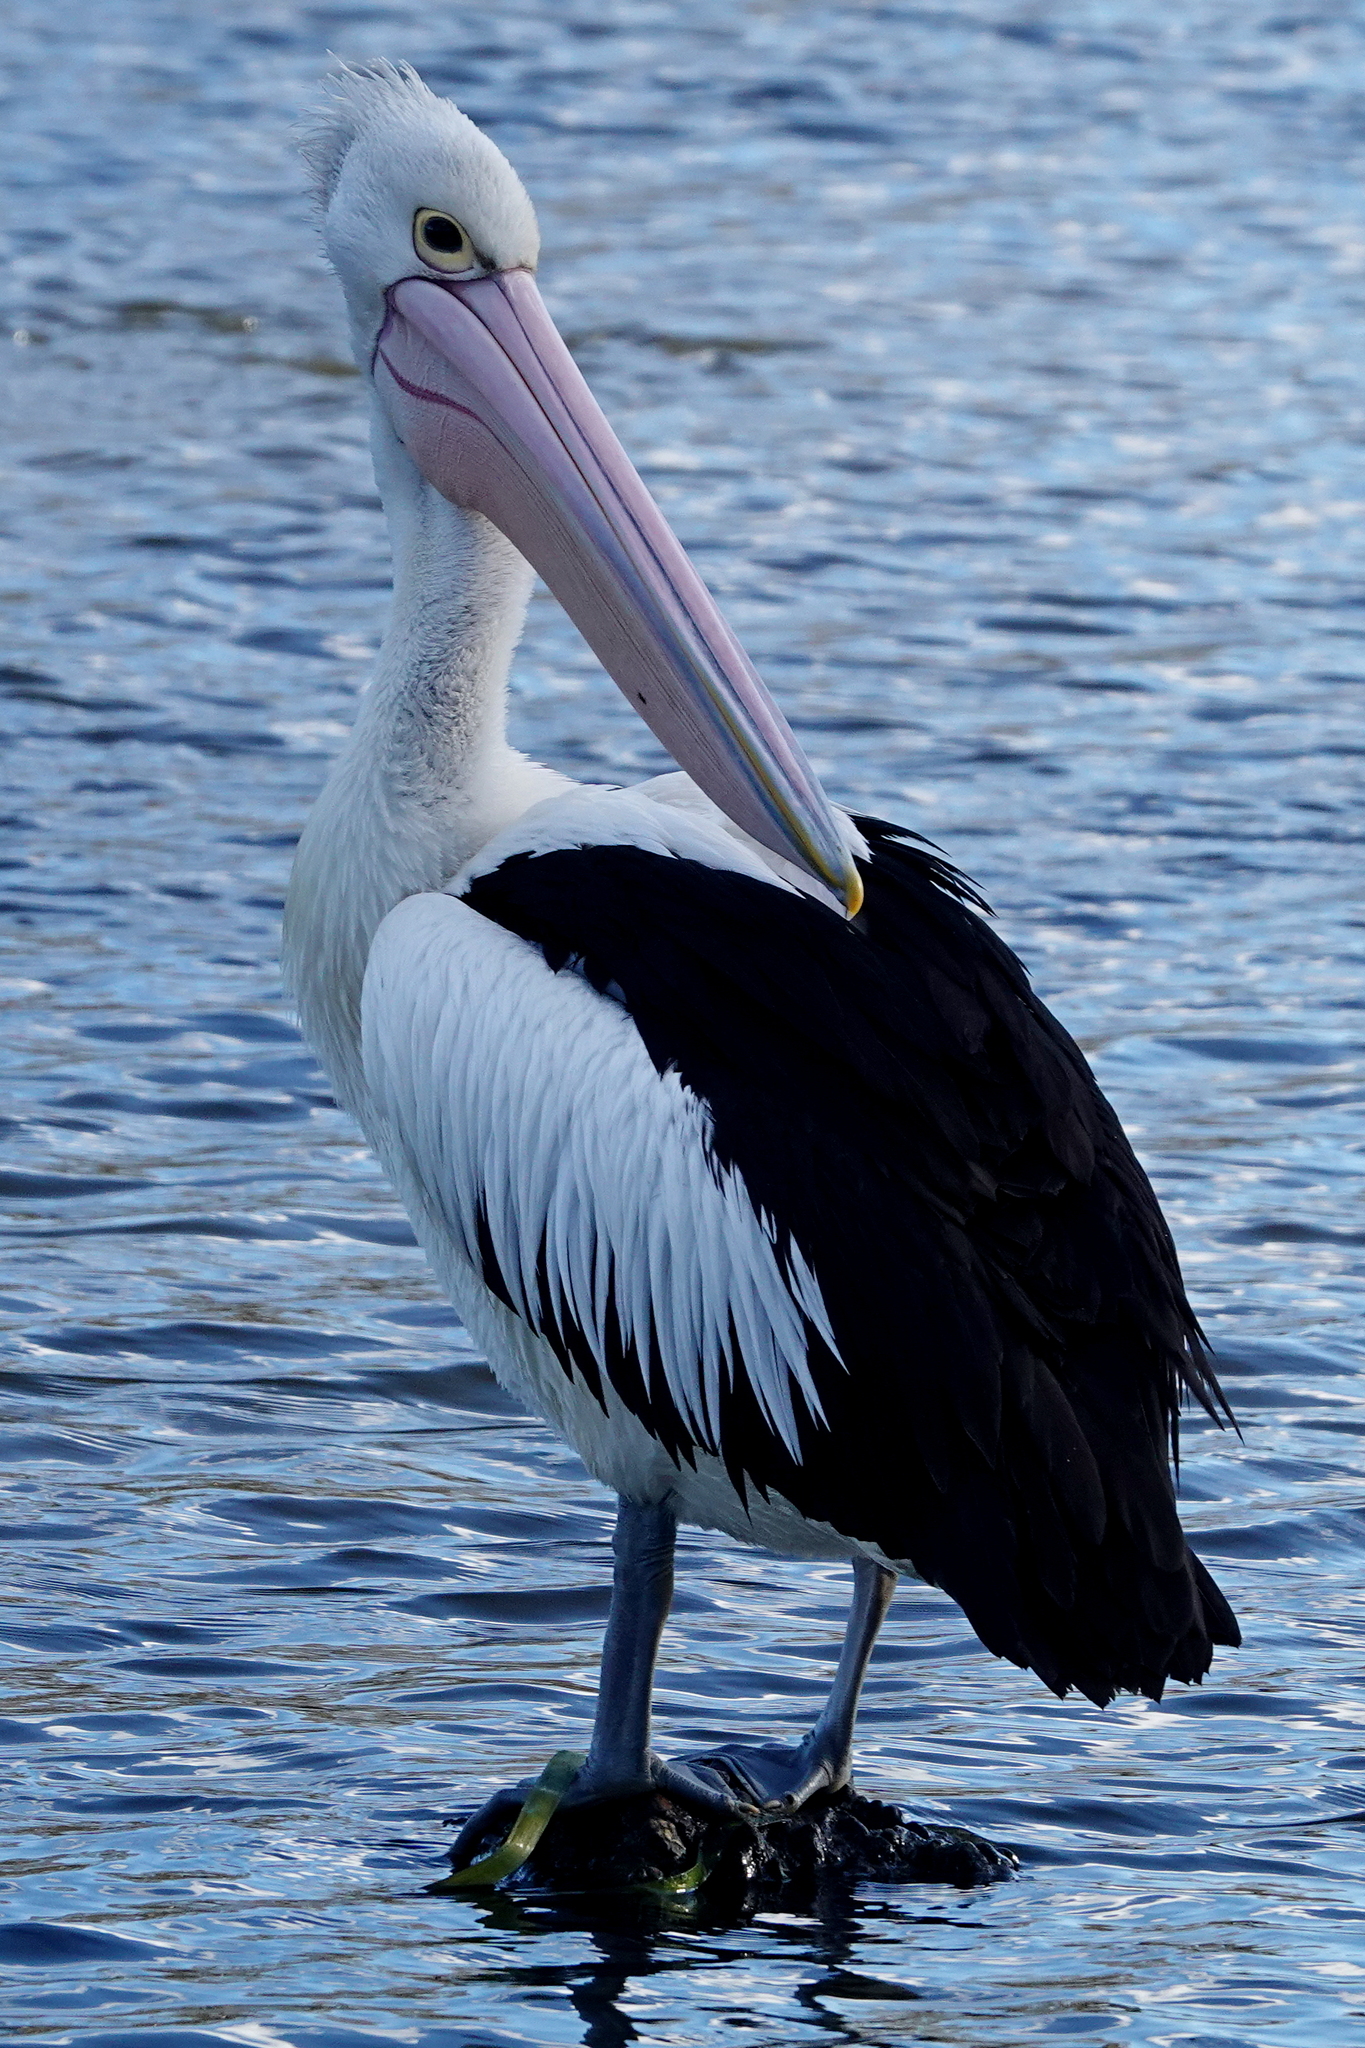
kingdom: Animalia
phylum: Chordata
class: Aves
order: Pelecaniformes
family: Pelecanidae
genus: Pelecanus
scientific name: Pelecanus conspicillatus
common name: Australian pelican
